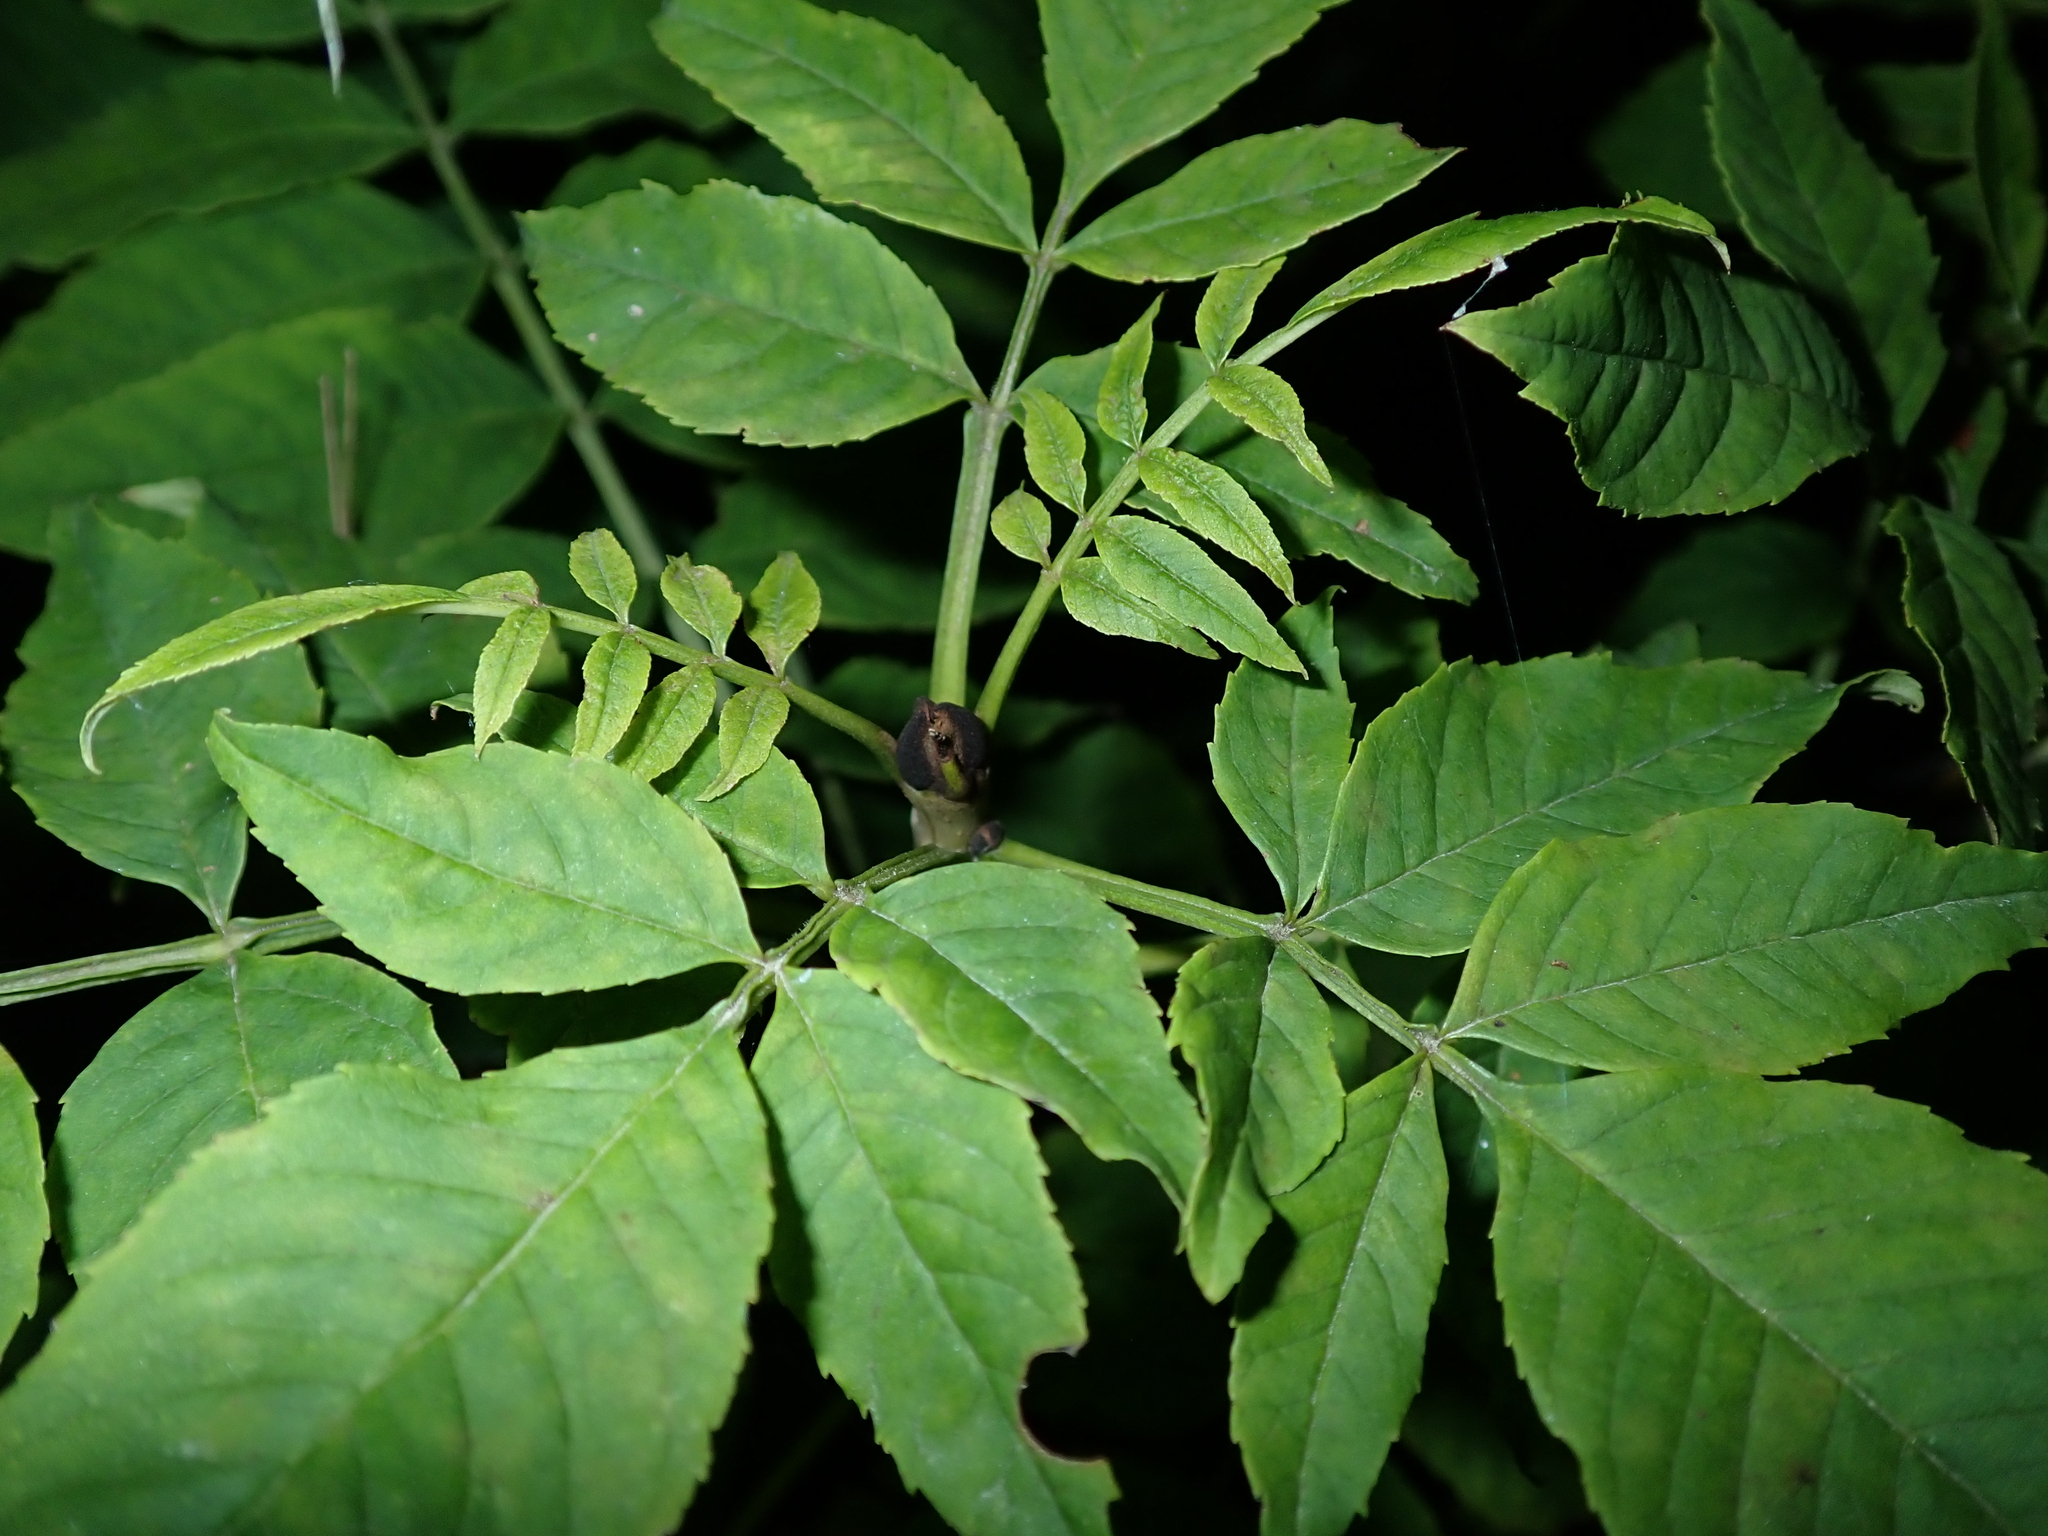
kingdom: Plantae
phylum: Tracheophyta
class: Magnoliopsida
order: Lamiales
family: Oleaceae
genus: Fraxinus
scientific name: Fraxinus excelsior
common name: European ash
